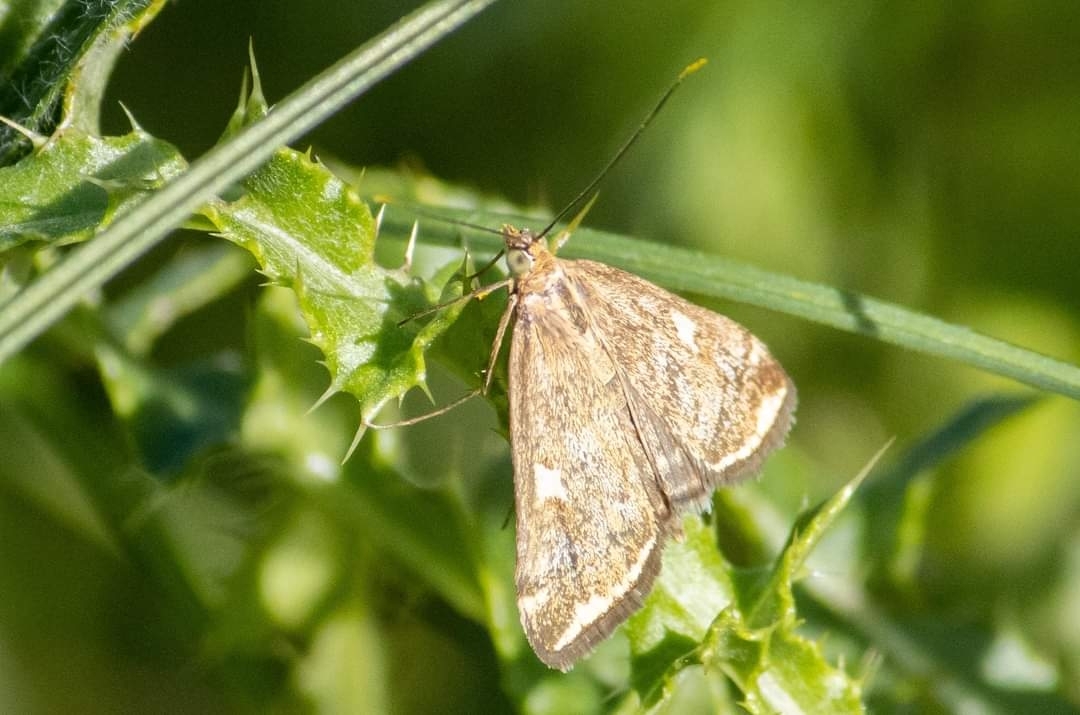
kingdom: Animalia
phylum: Arthropoda
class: Insecta
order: Lepidoptera
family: Crambidae
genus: Loxostege
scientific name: Loxostege sticticalis
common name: Crambid moth
